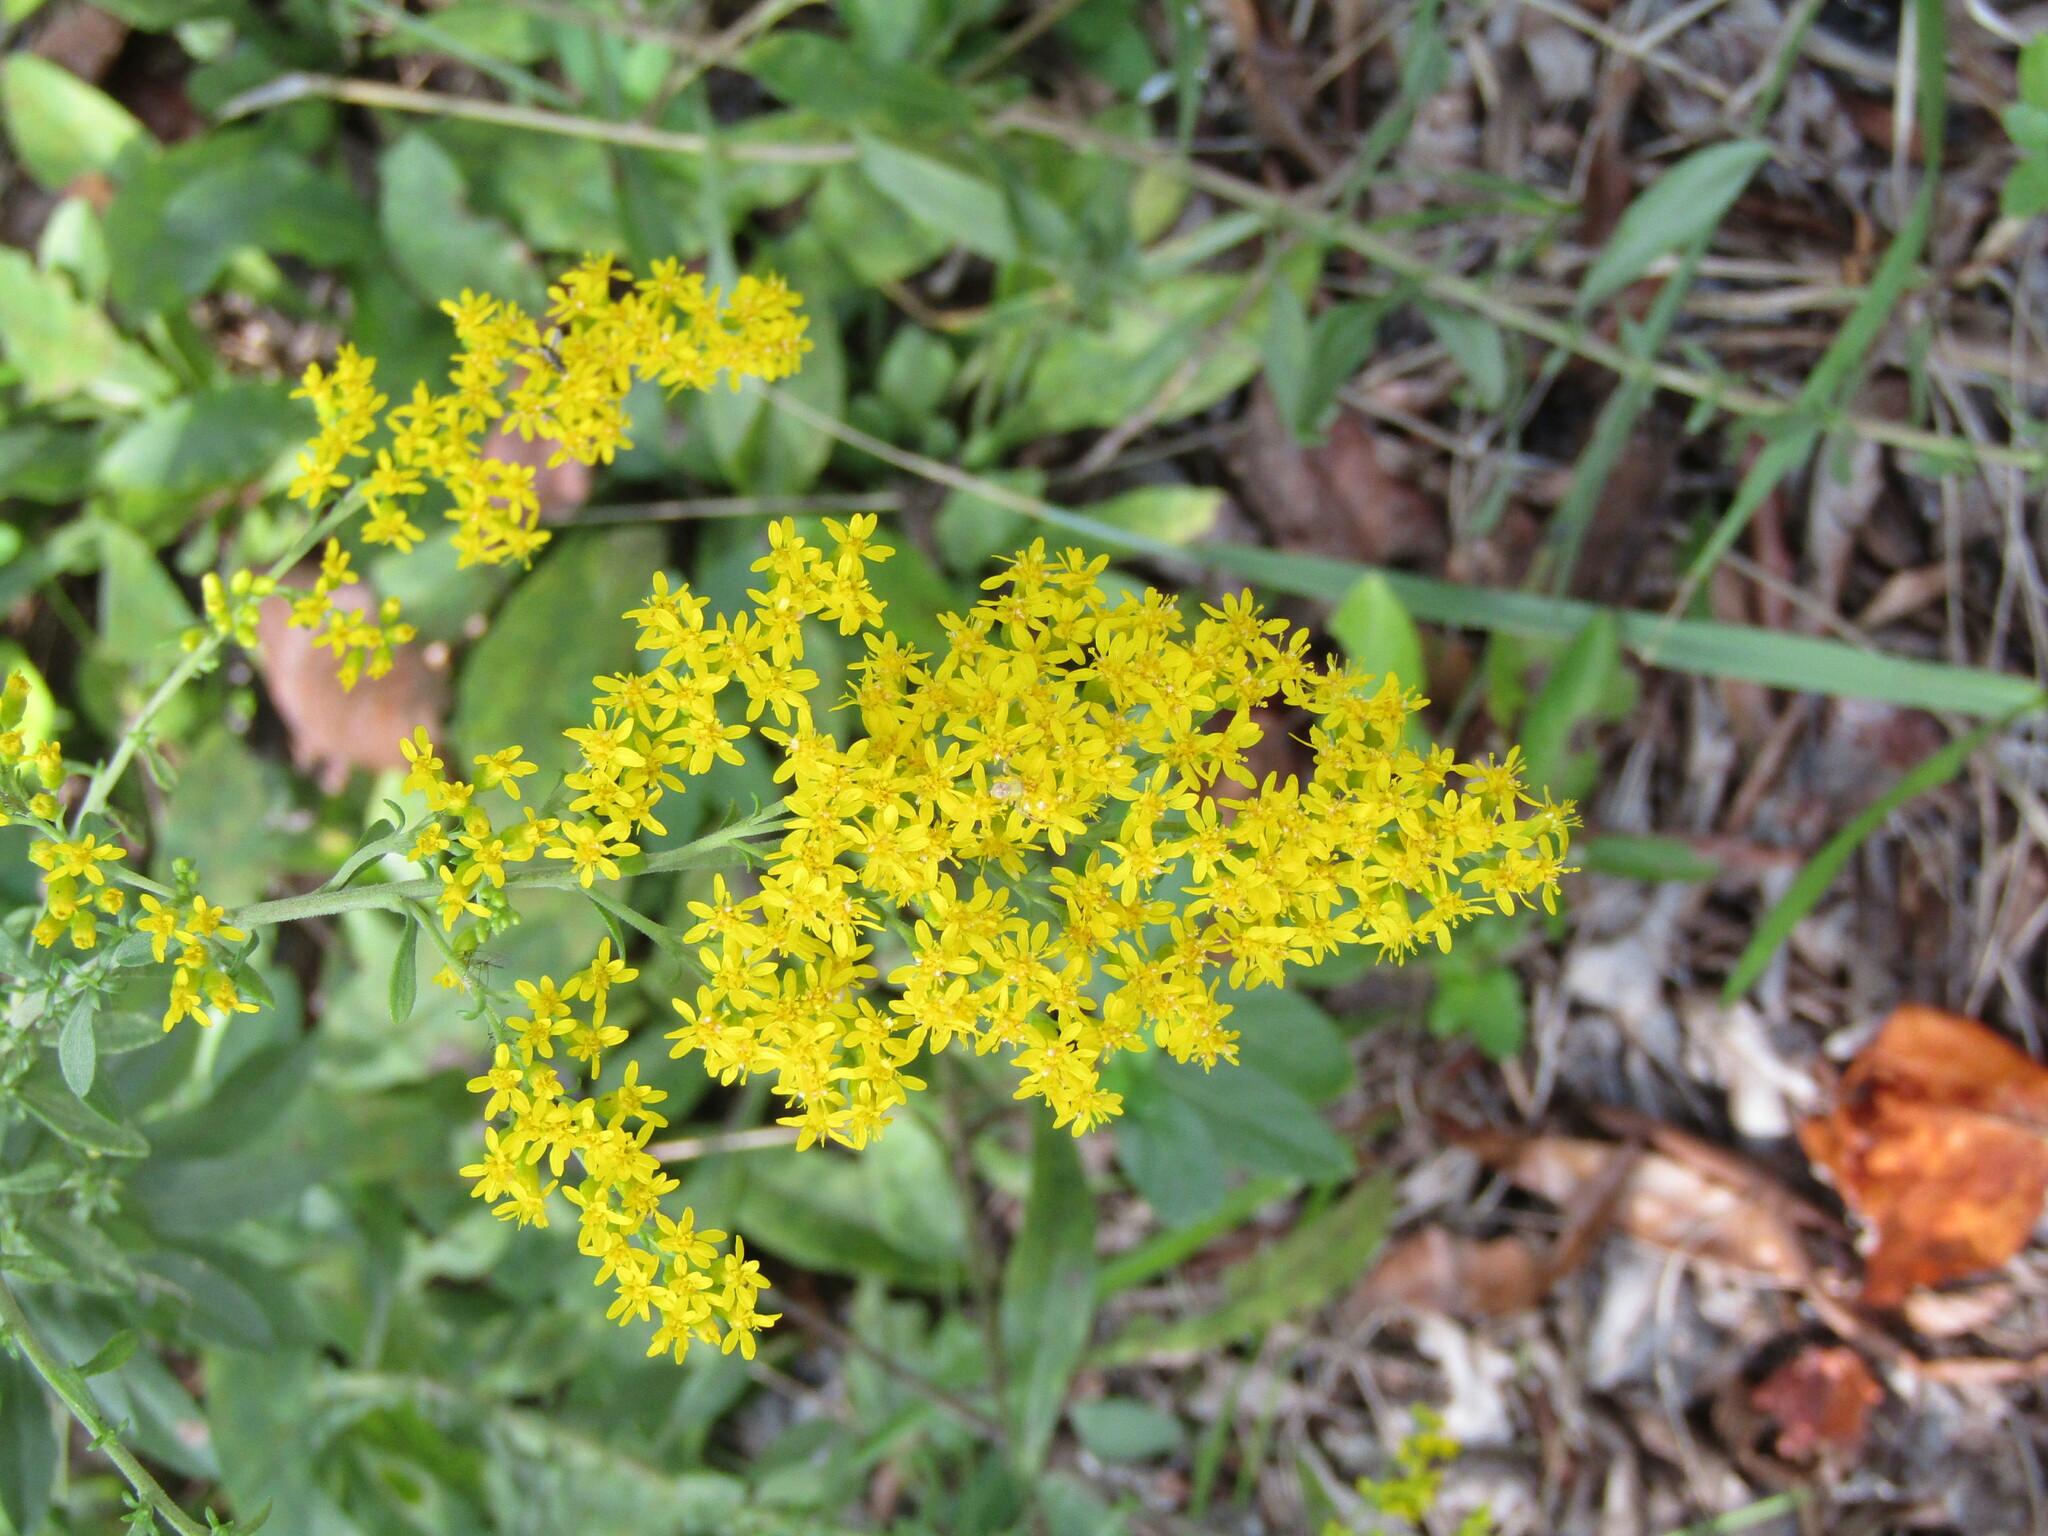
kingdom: Plantae
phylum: Tracheophyta
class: Magnoliopsida
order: Asterales
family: Asteraceae
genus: Solidago
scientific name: Solidago nemoralis
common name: Grey goldenrod
